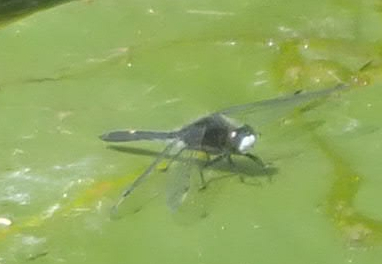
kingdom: Animalia
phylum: Arthropoda
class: Insecta
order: Odonata
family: Libellulidae
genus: Leucorrhinia
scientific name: Leucorrhinia intacta
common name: Dot-tailed whiteface
